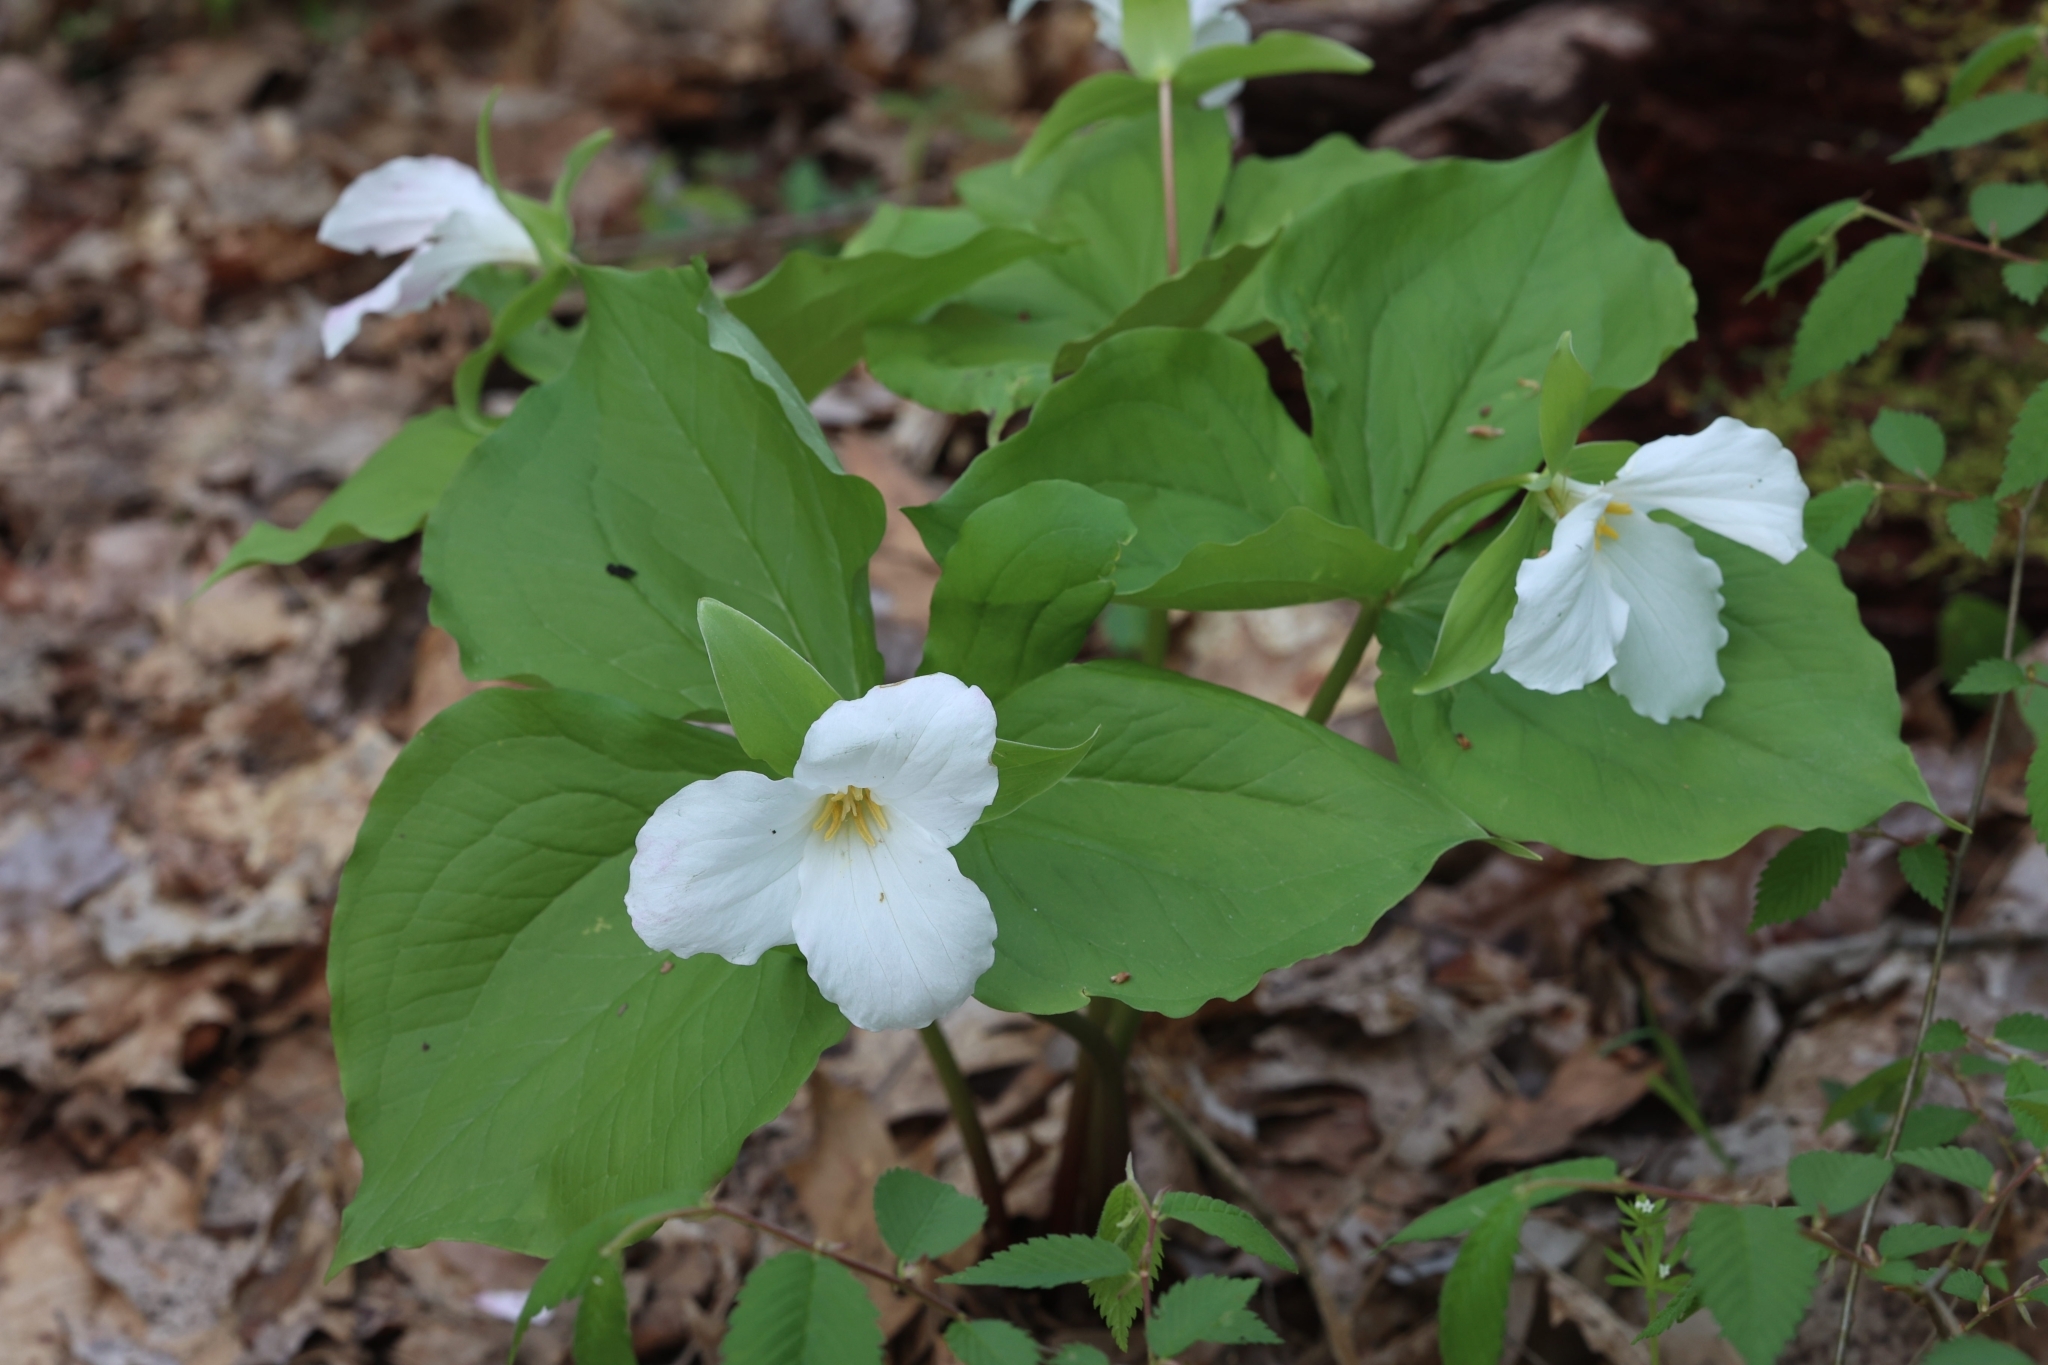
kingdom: Plantae
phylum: Tracheophyta
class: Liliopsida
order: Liliales
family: Melanthiaceae
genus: Trillium
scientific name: Trillium grandiflorum
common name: Great white trillium
